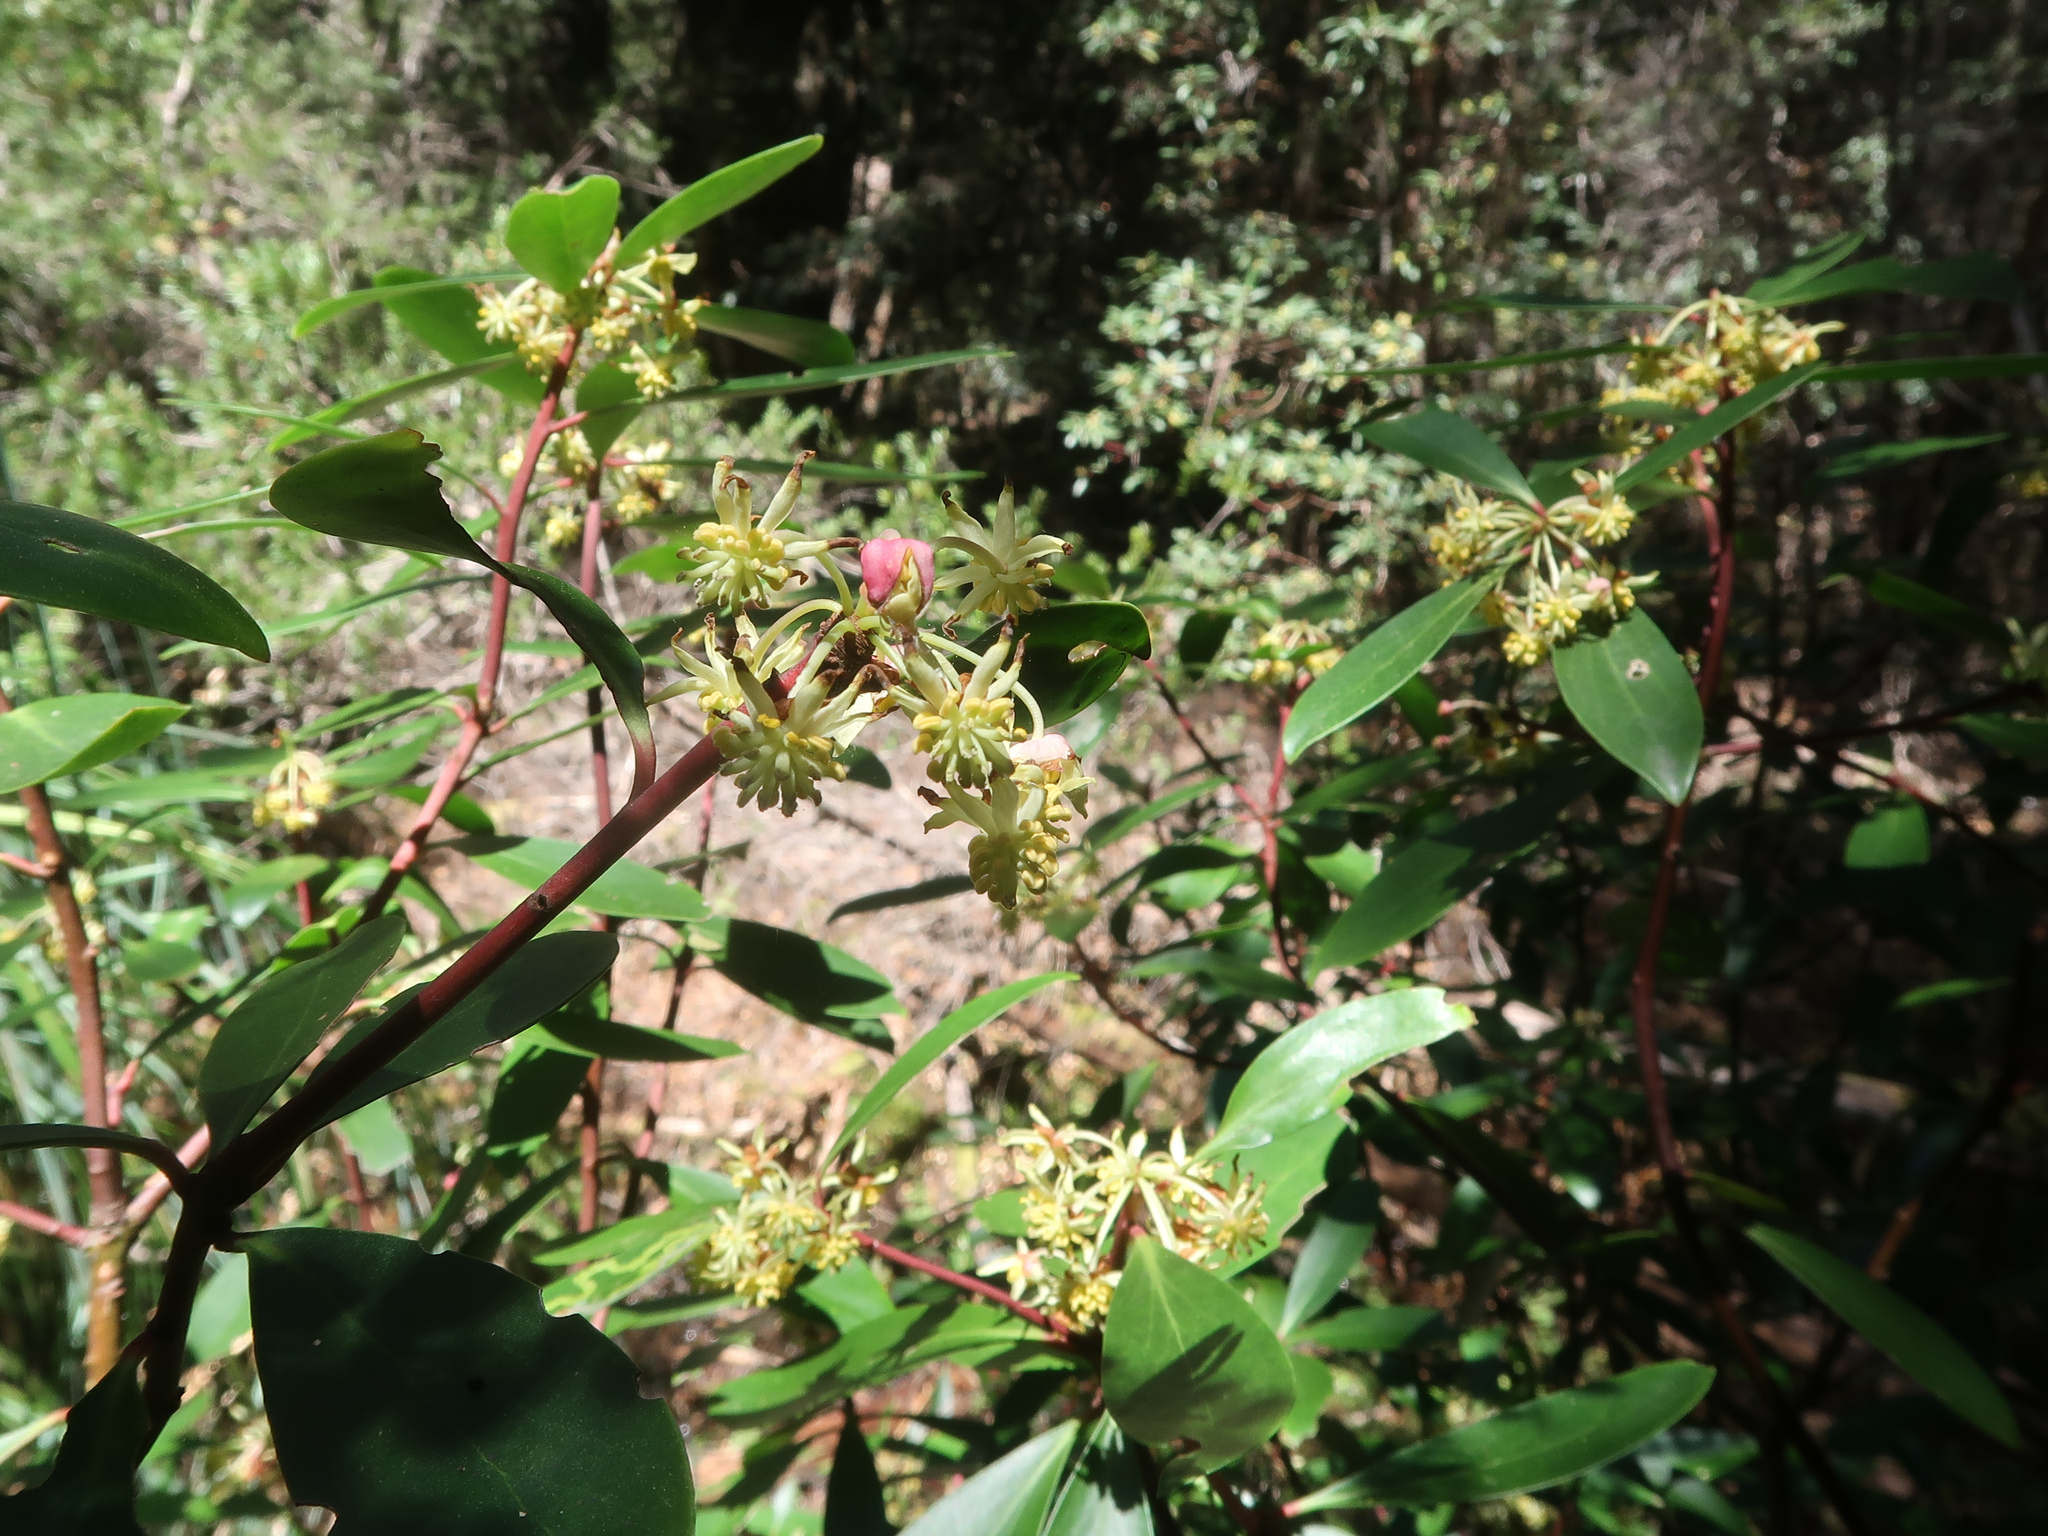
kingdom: Plantae
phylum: Tracheophyta
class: Magnoliopsida
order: Canellales
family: Winteraceae
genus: Drimys
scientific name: Drimys aromatica
